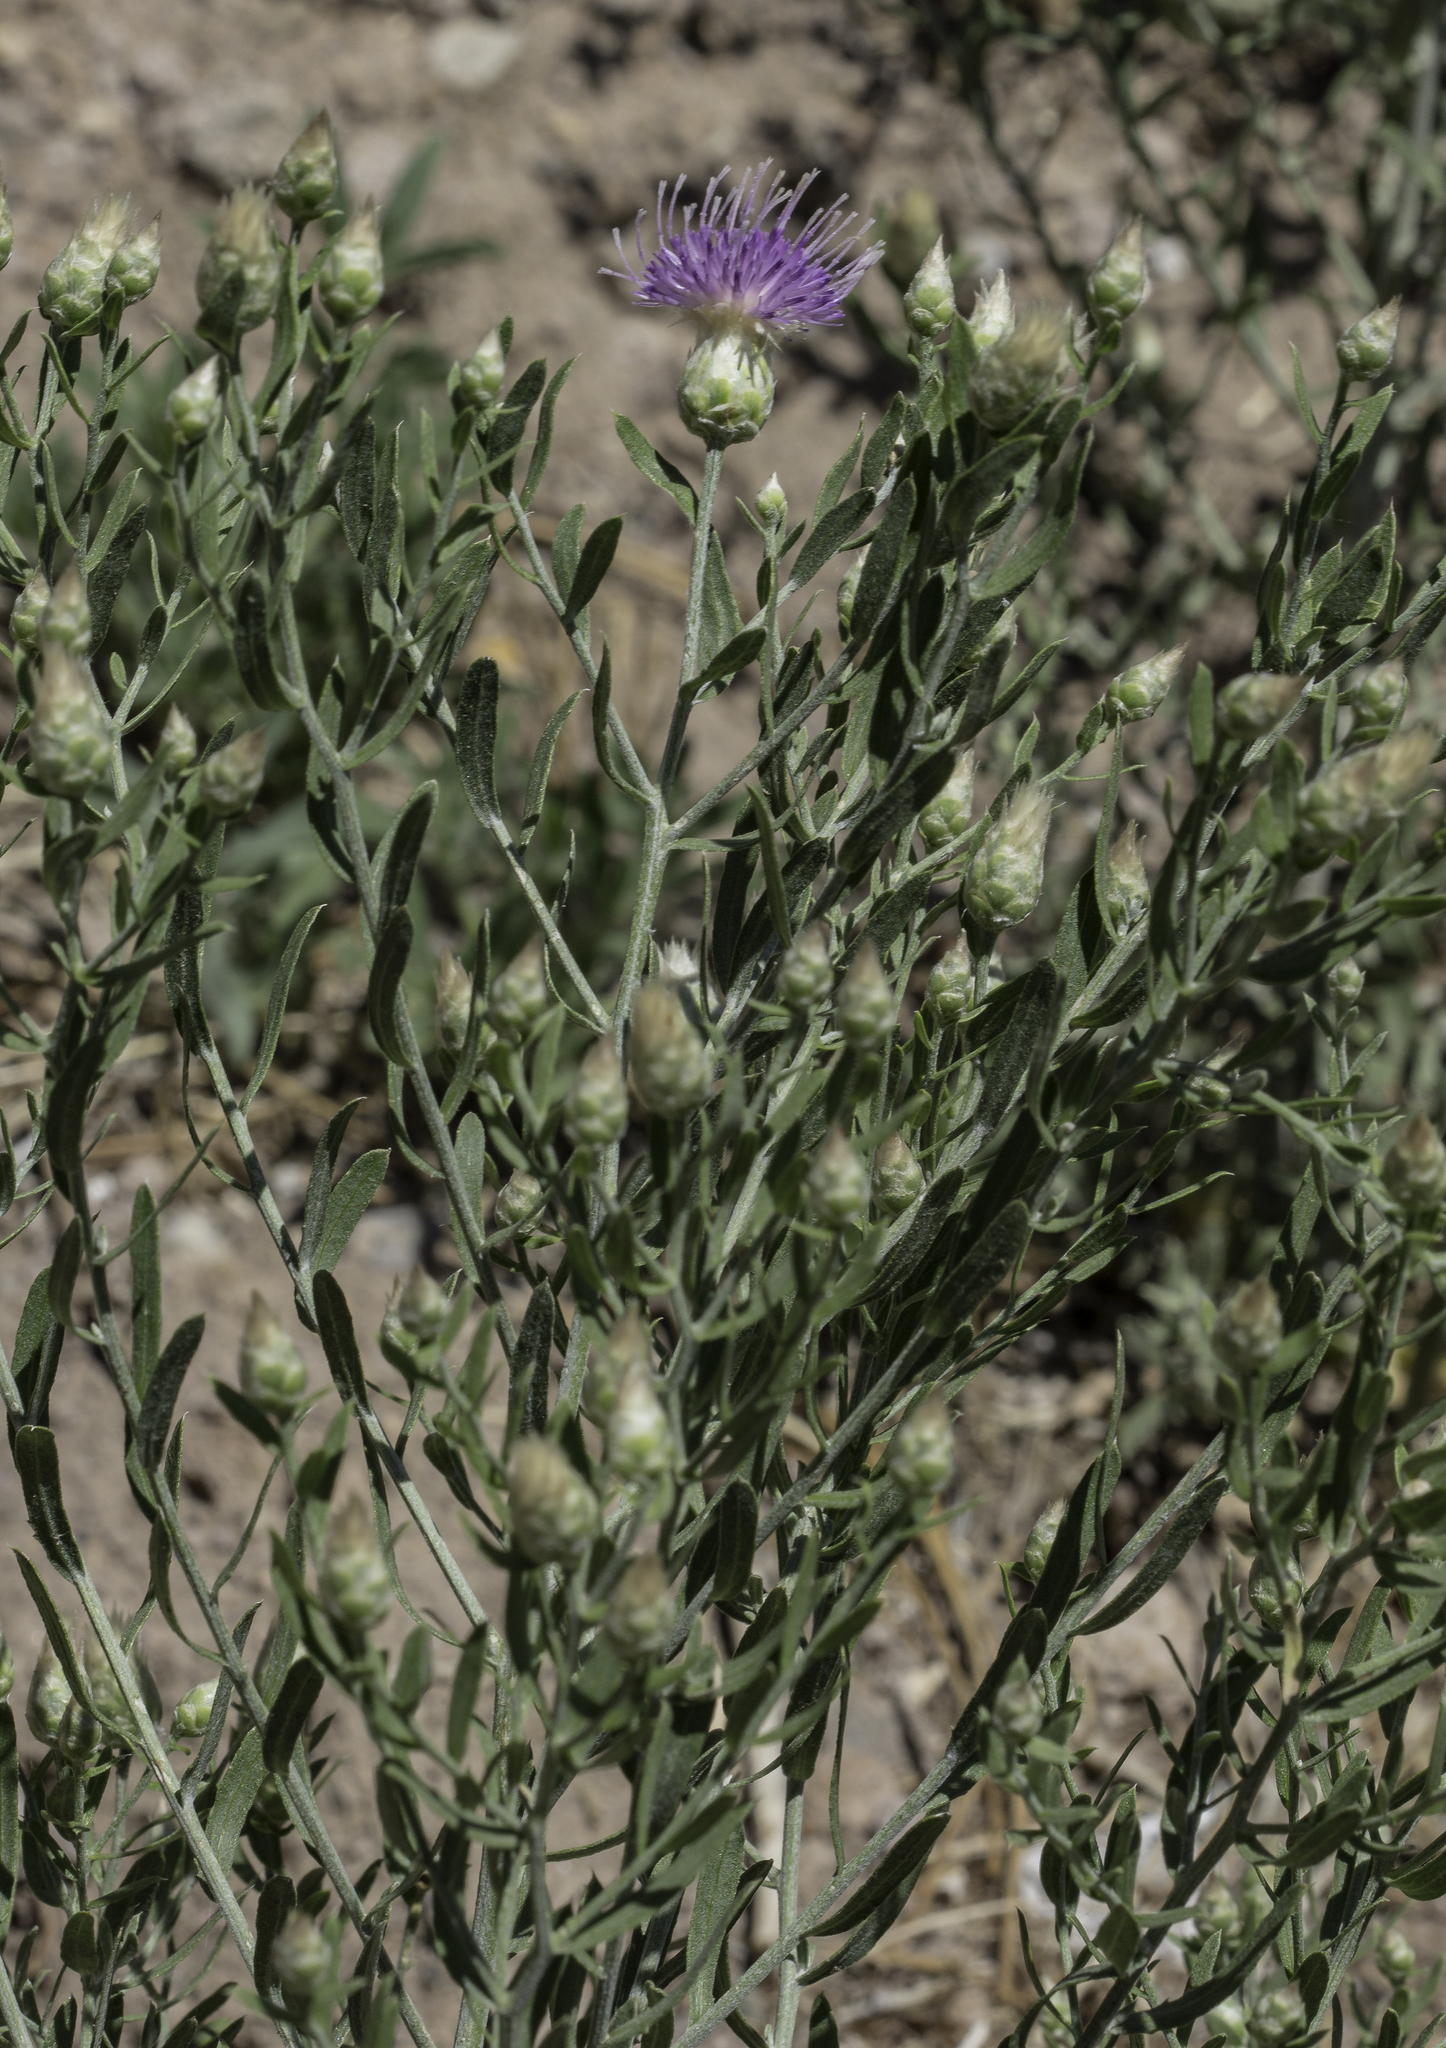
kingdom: Plantae
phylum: Tracheophyta
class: Magnoliopsida
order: Asterales
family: Asteraceae
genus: Leuzea
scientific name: Leuzea repens
